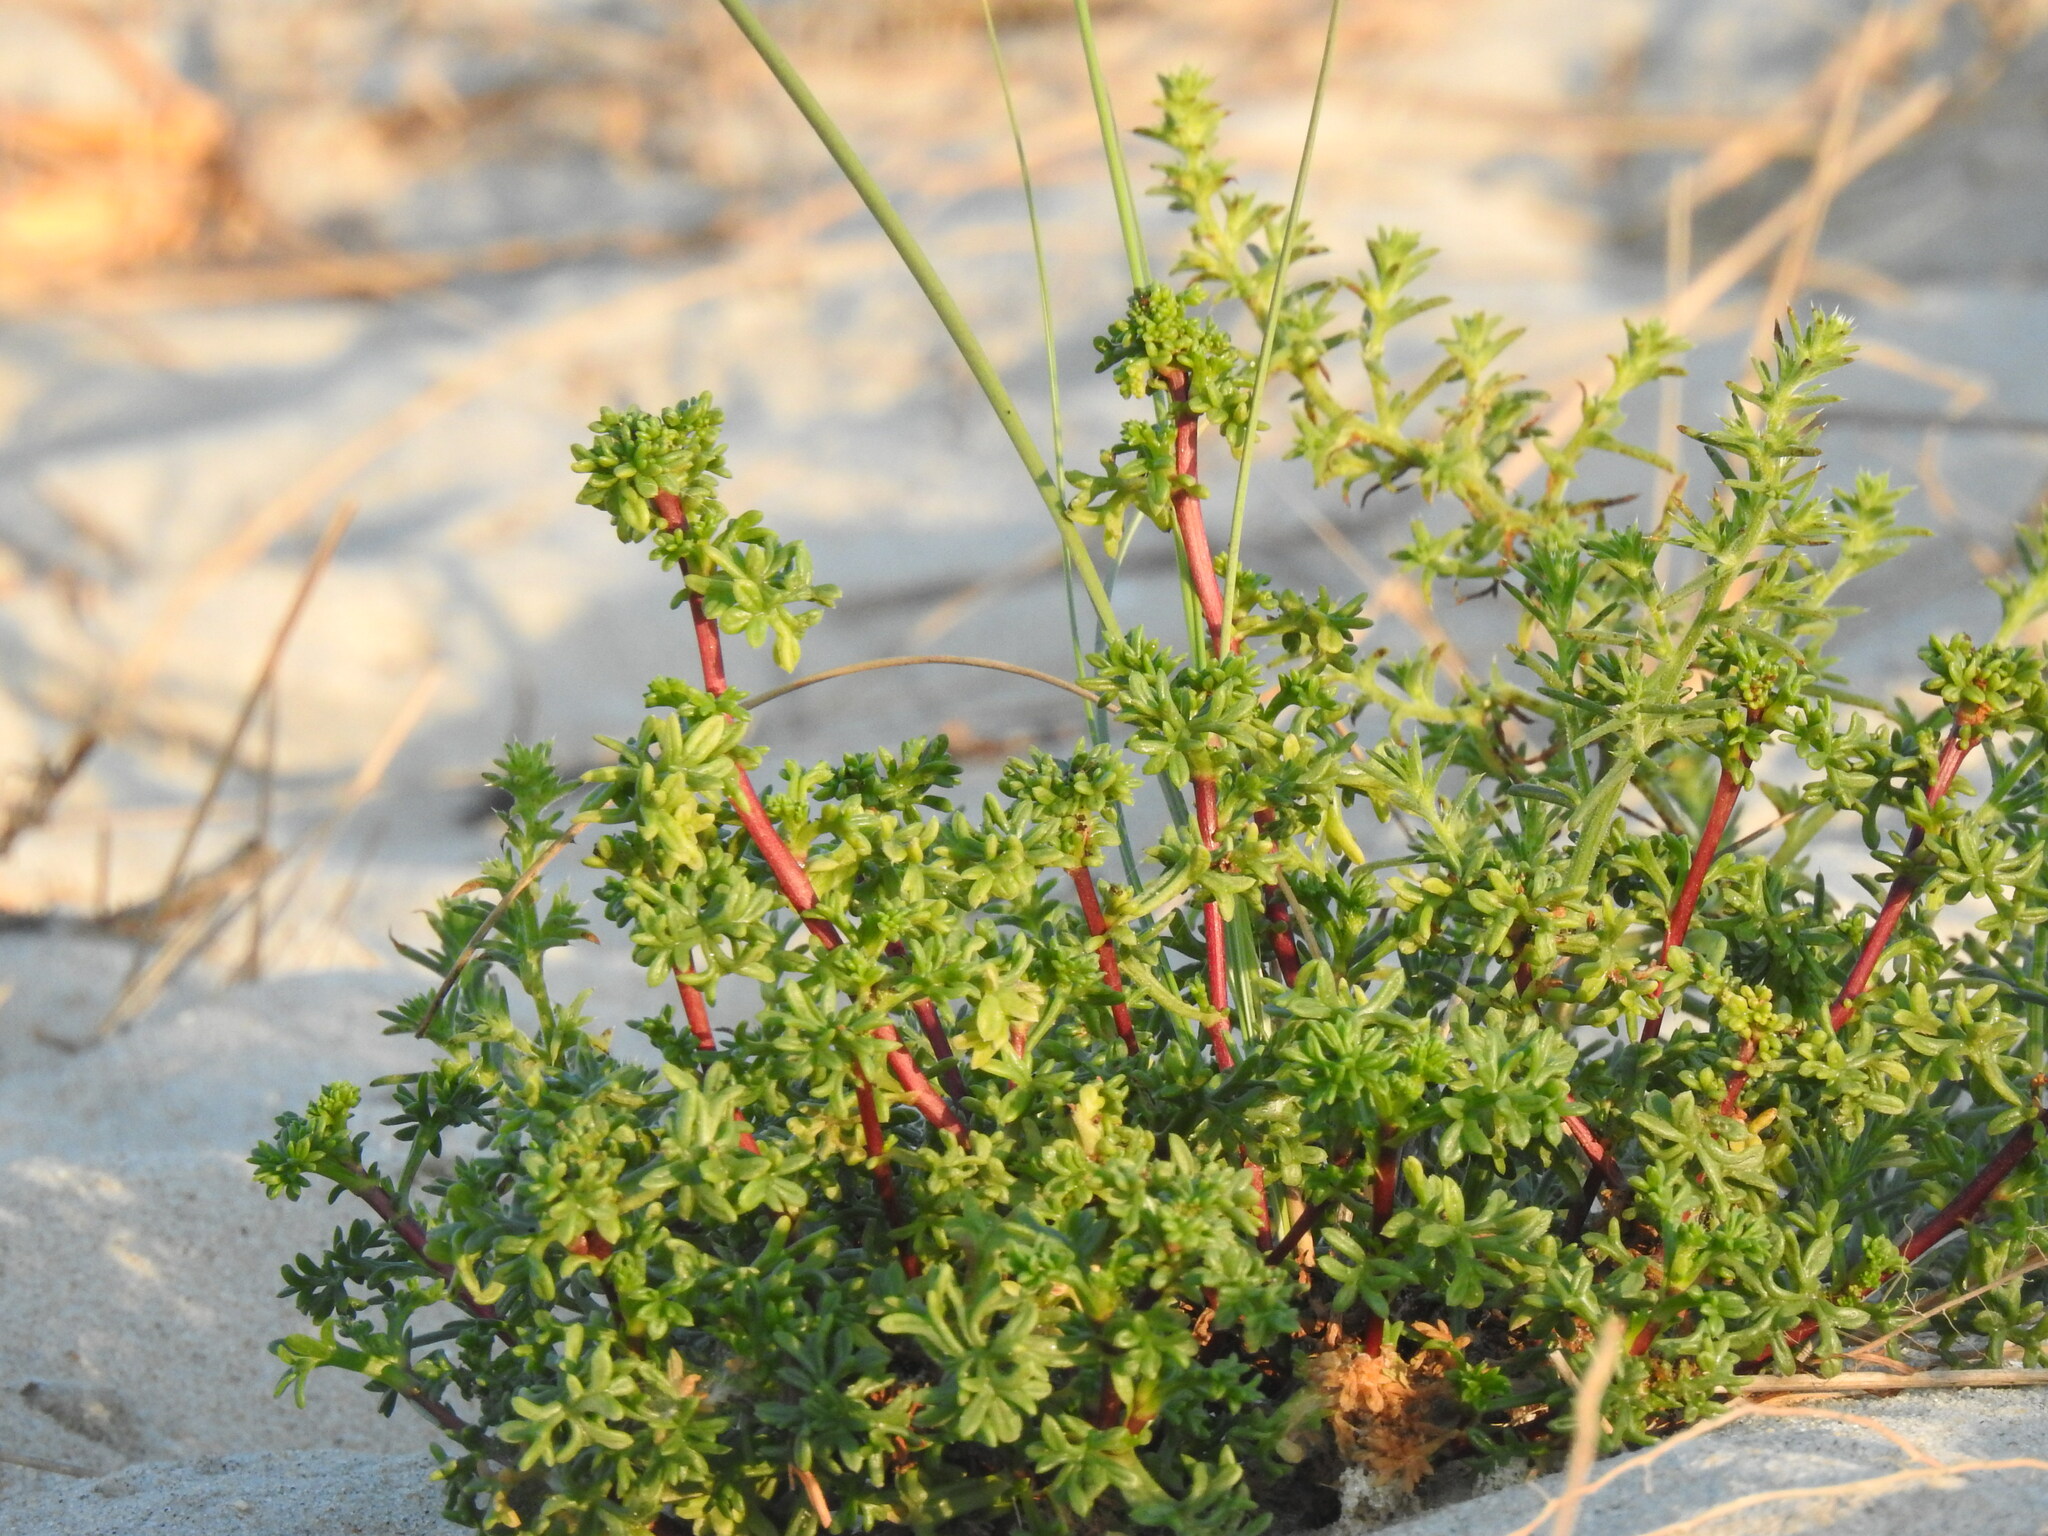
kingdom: Plantae
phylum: Tracheophyta
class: Magnoliopsida
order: Asterales
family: Asteraceae
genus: Artemisia
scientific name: Artemisia crithmifolia
